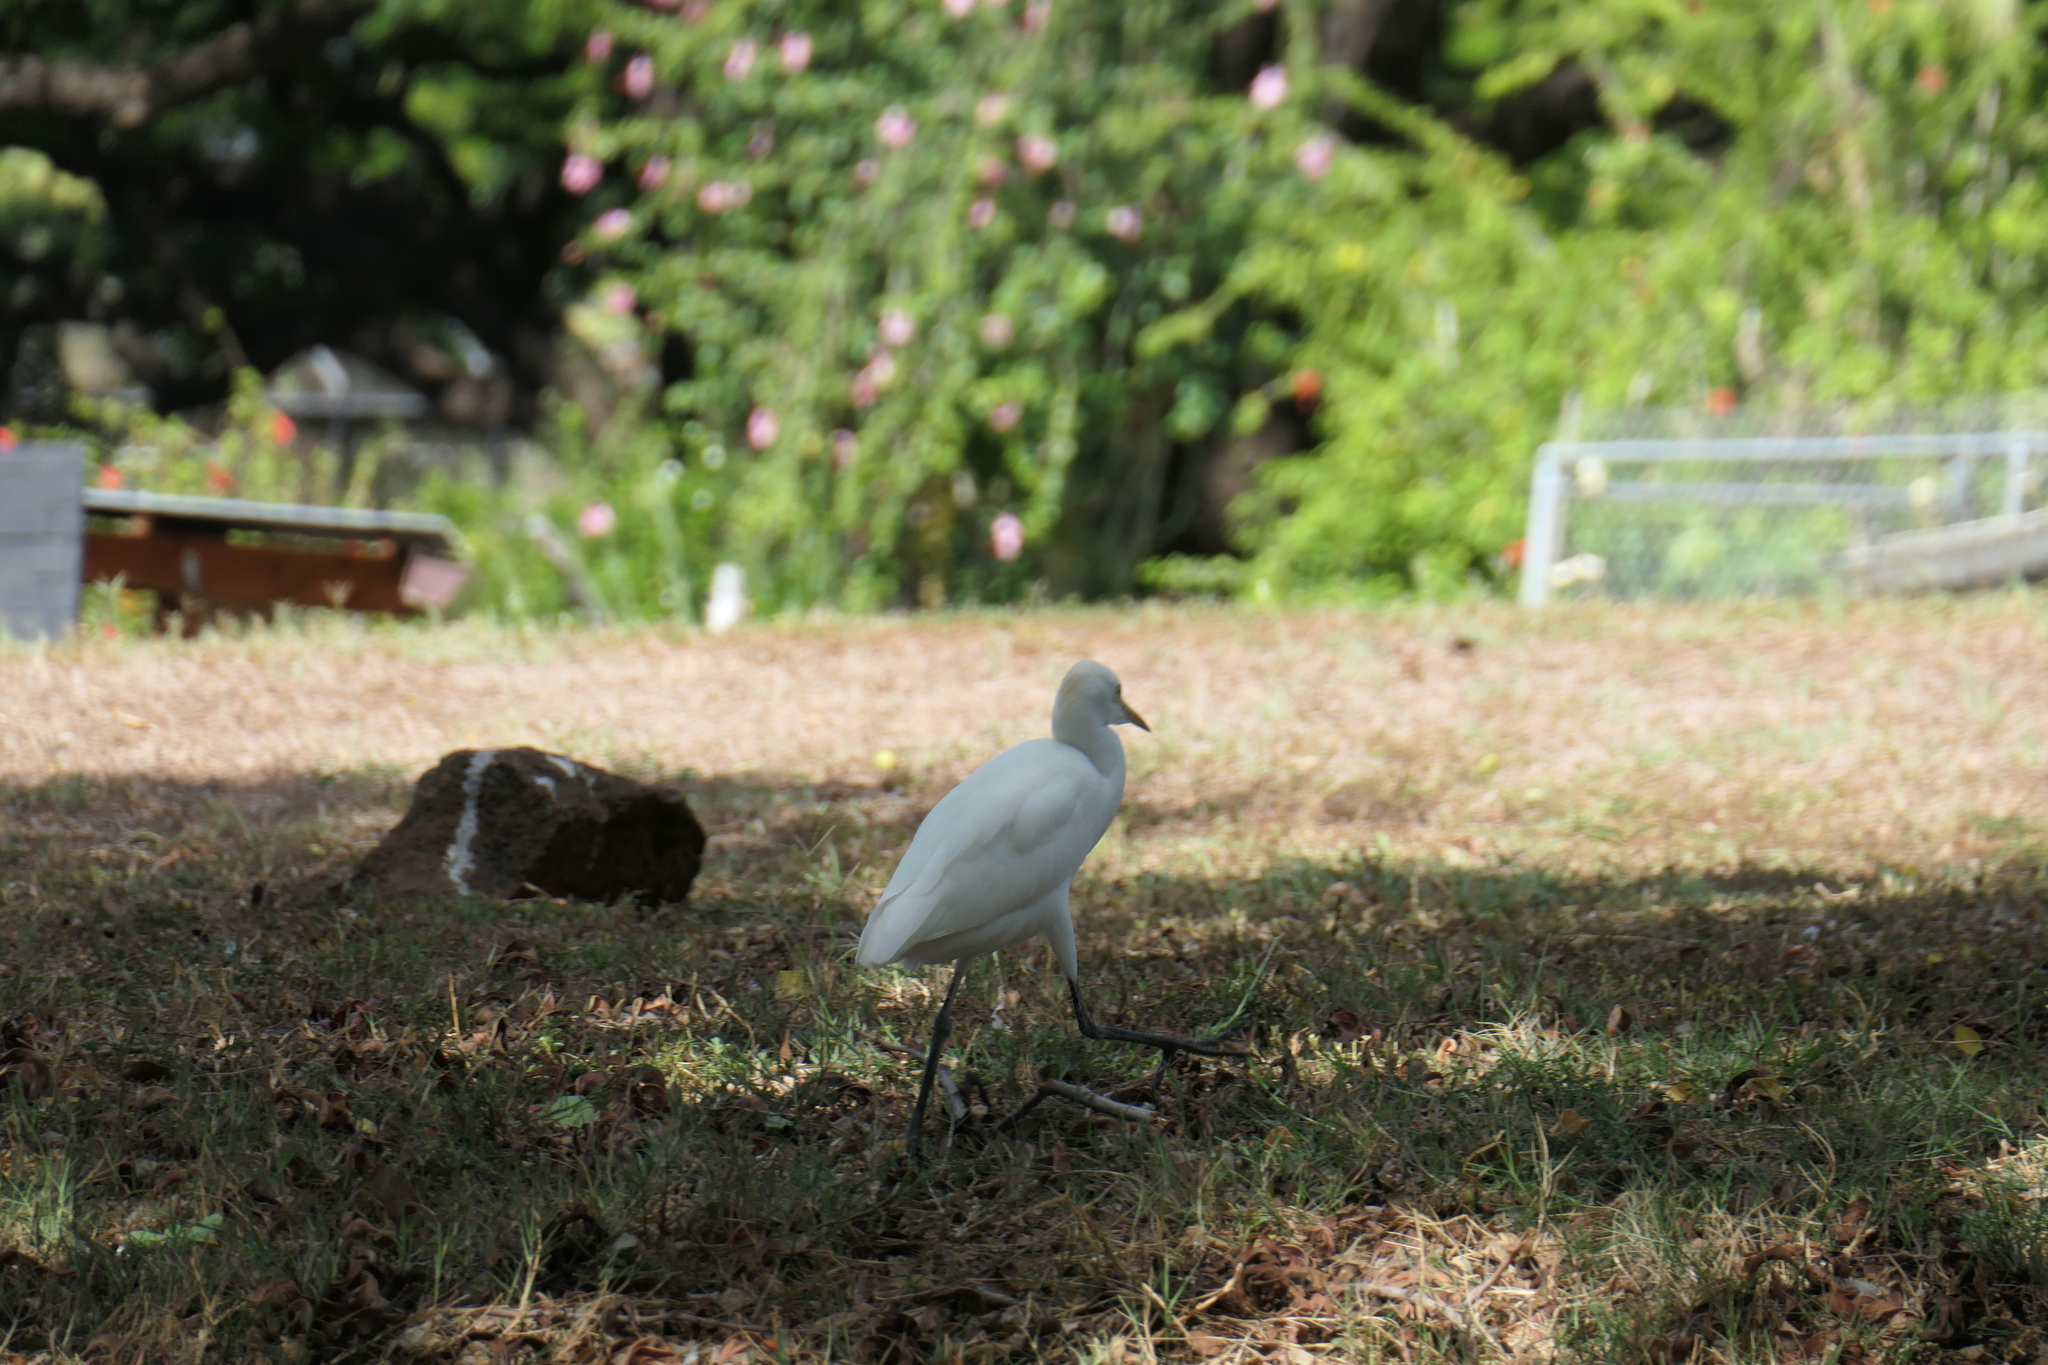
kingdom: Animalia
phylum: Chordata
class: Aves
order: Pelecaniformes
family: Ardeidae
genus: Bubulcus
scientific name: Bubulcus ibis
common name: Cattle egret
